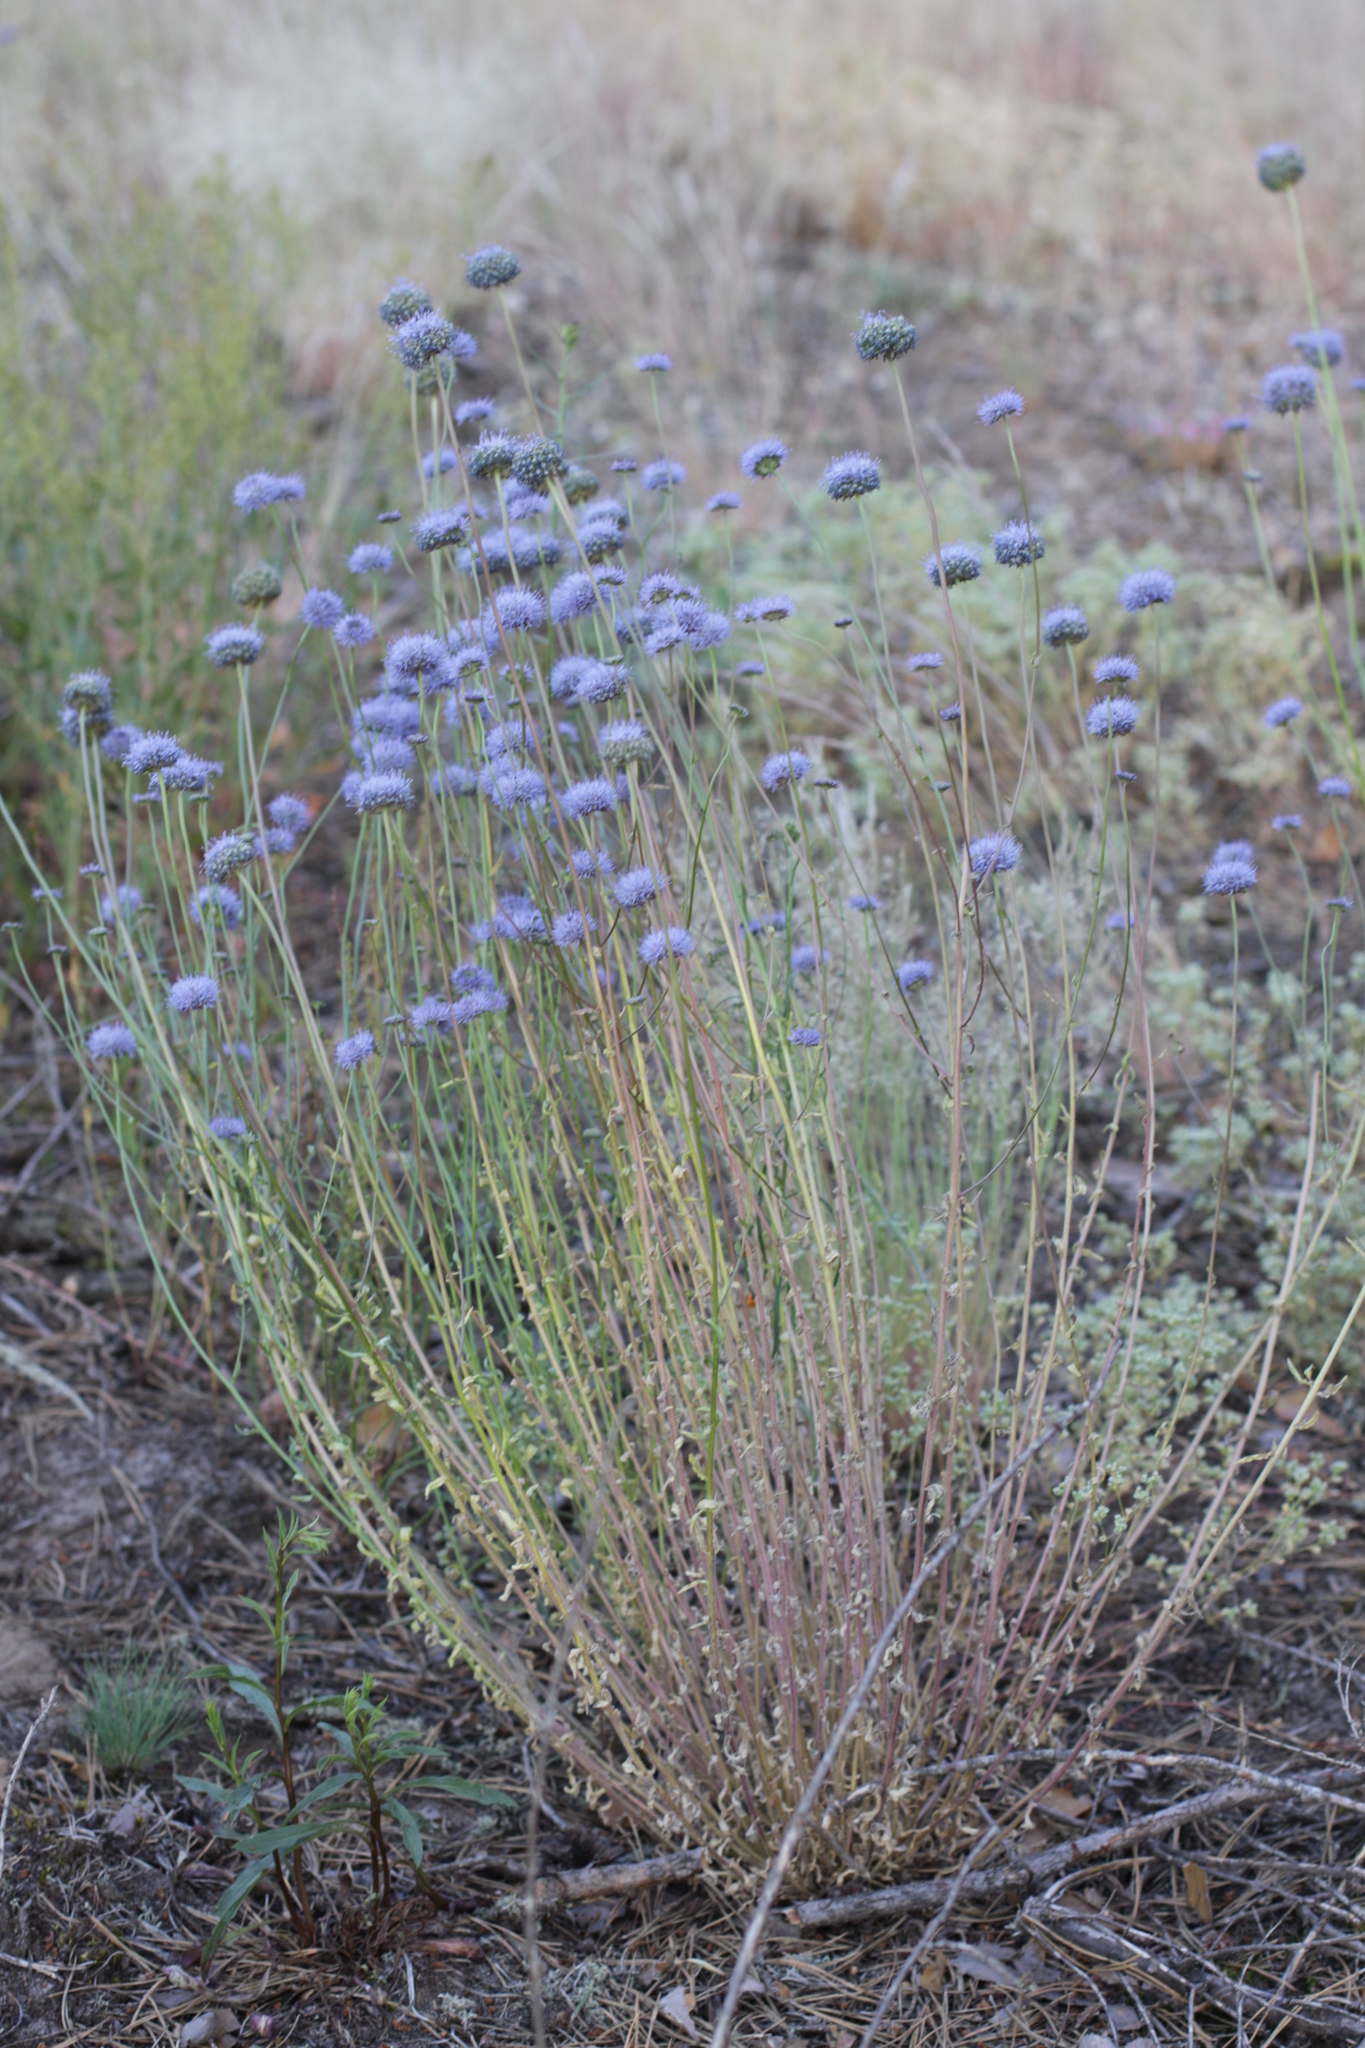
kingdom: Plantae
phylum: Tracheophyta
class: Magnoliopsida
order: Asterales
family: Campanulaceae
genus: Jasione
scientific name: Jasione montana
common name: Sheep's-bit
